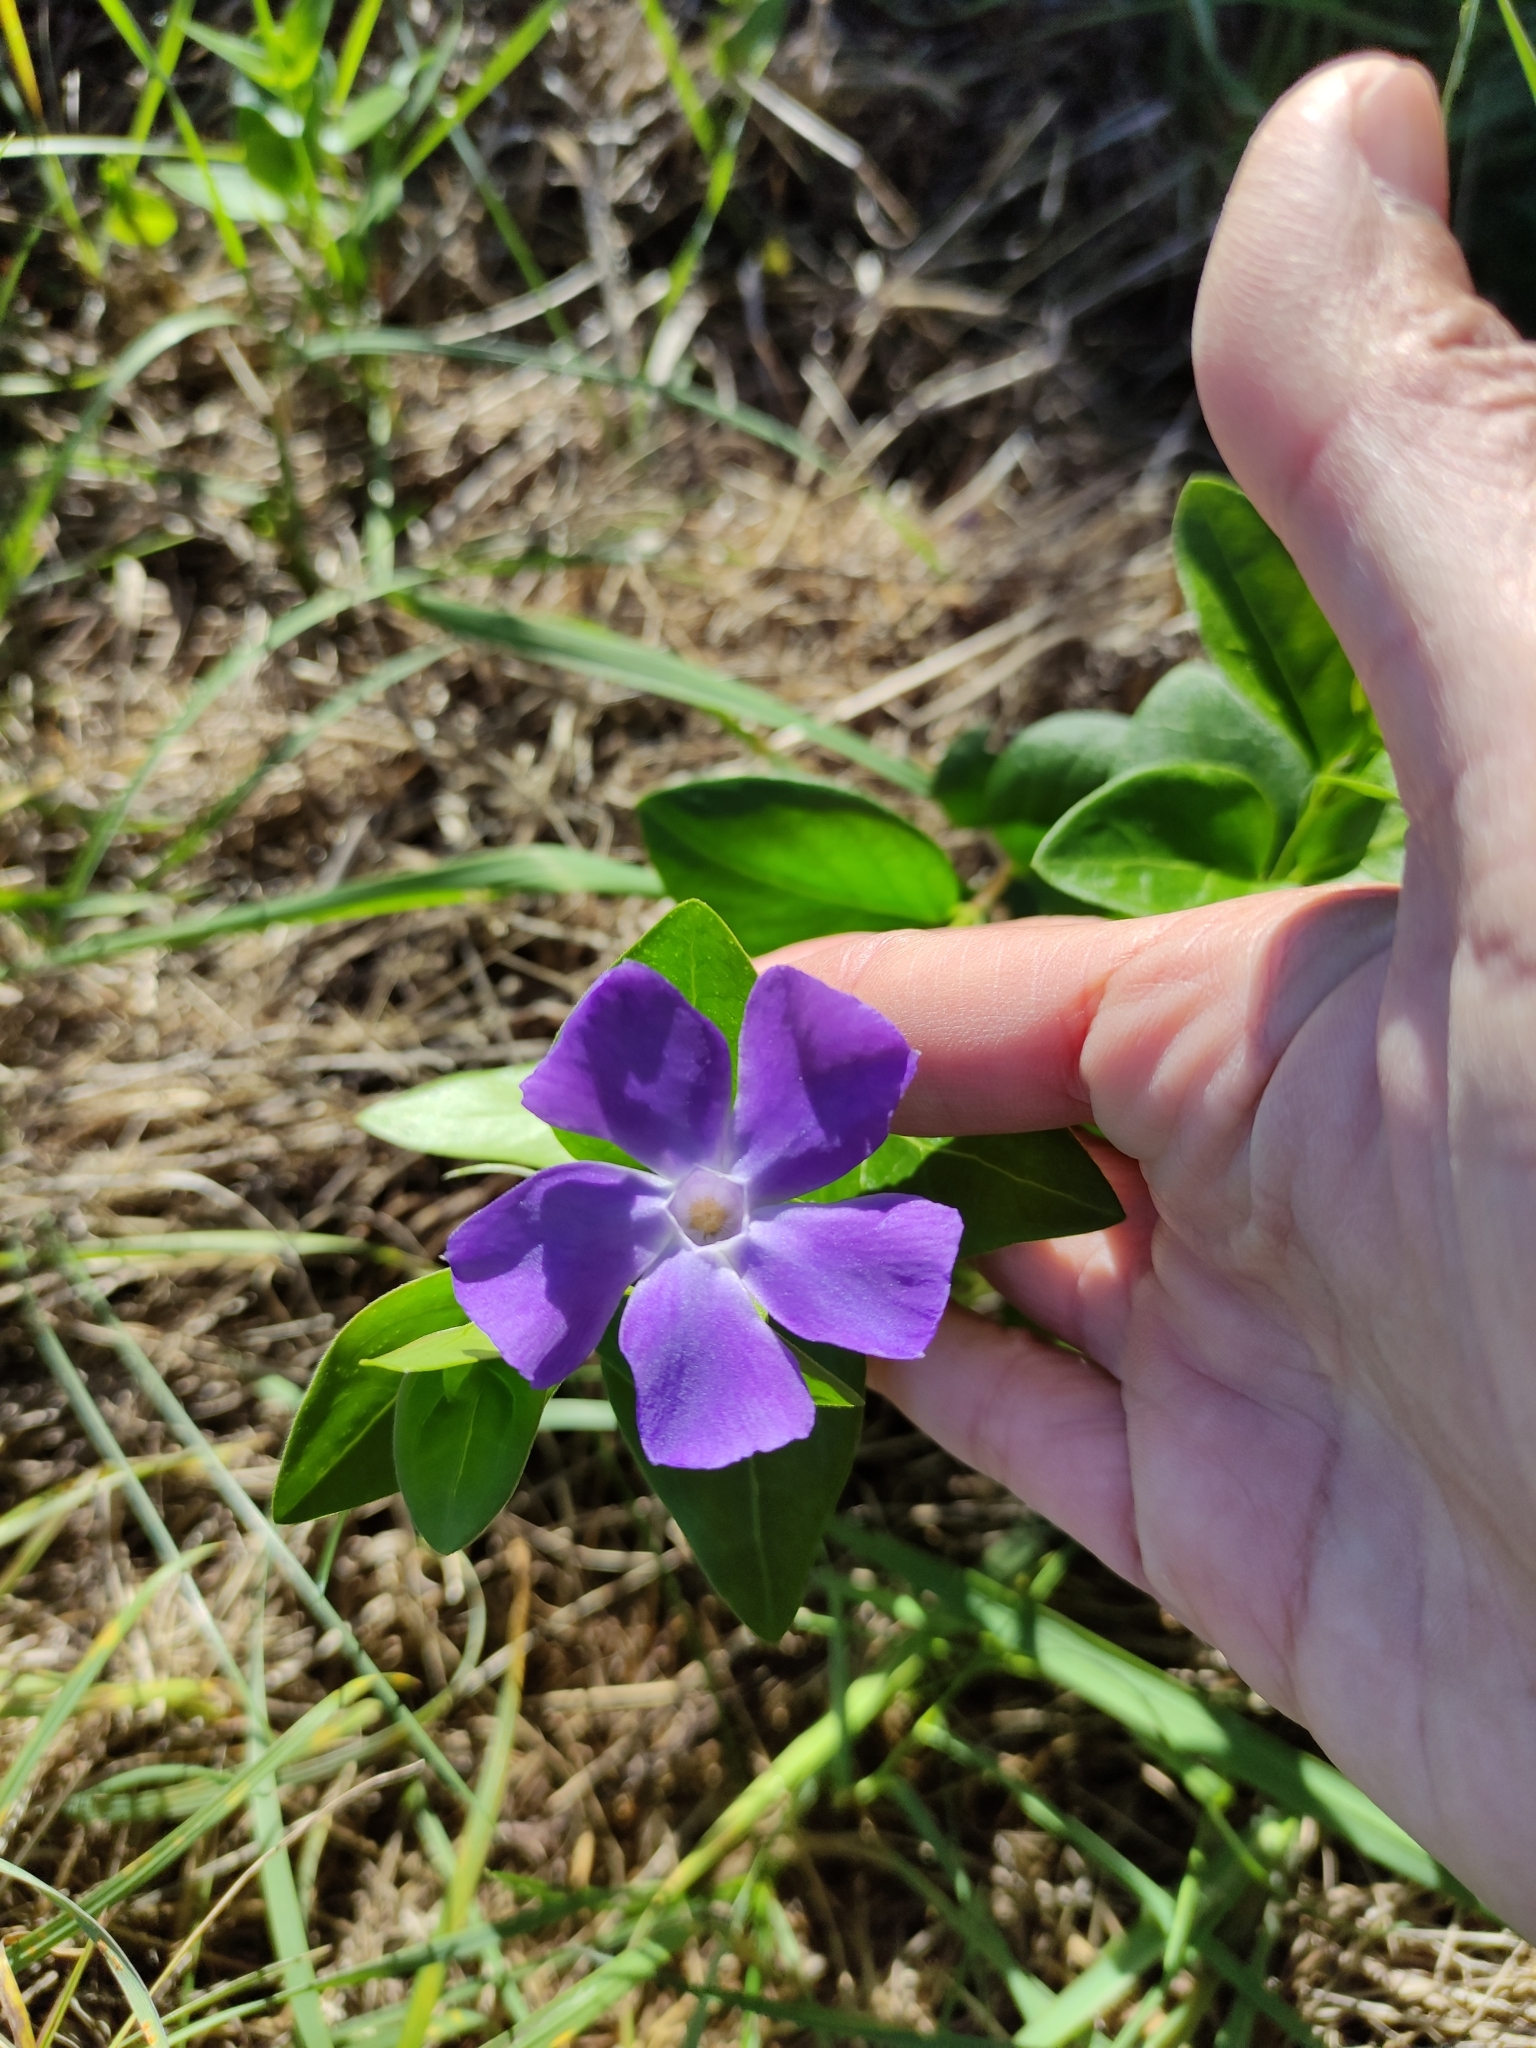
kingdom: Plantae
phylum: Tracheophyta
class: Magnoliopsida
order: Gentianales
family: Apocynaceae
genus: Vinca
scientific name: Vinca major
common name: Greater periwinkle
